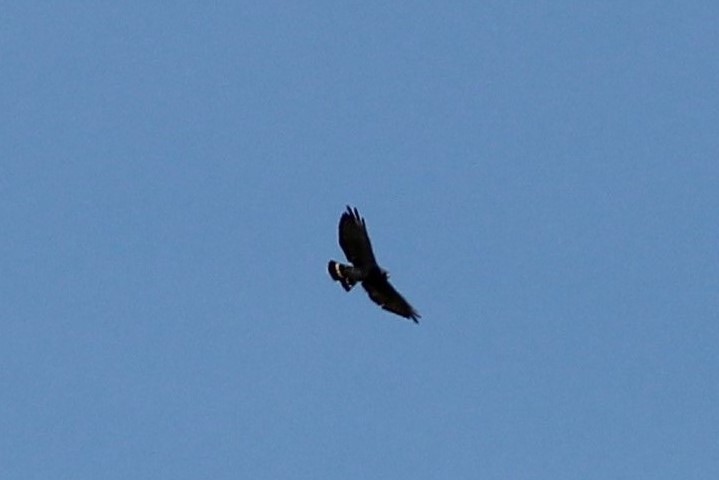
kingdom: Animalia
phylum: Chordata
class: Aves
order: Accipitriformes
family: Accipitridae
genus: Buteo
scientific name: Buteo platypterus
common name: Broad-winged hawk
